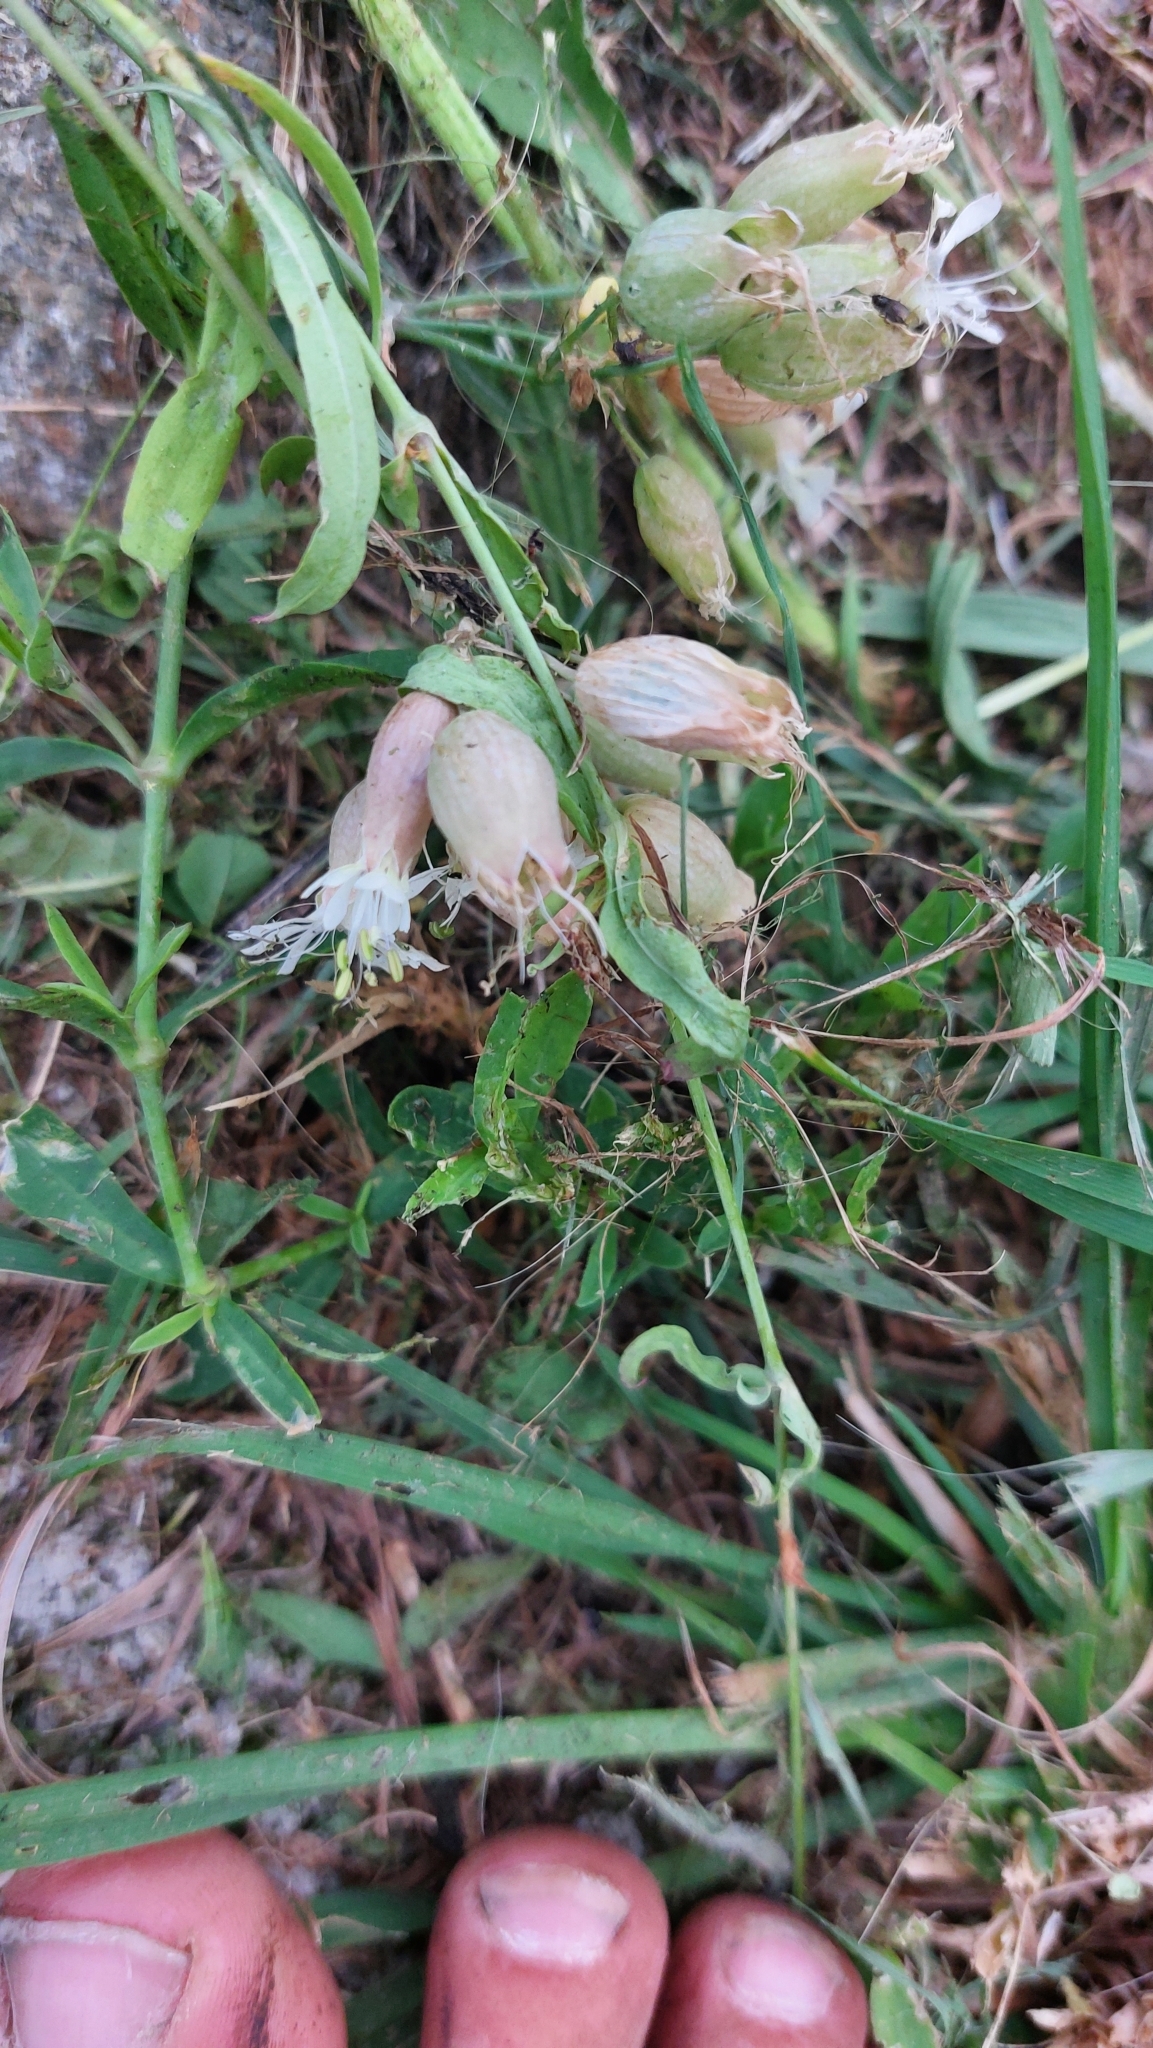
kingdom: Plantae
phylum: Tracheophyta
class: Magnoliopsida
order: Caryophyllales
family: Caryophyllaceae
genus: Silene
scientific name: Silene vulgaris
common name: Bladder campion
